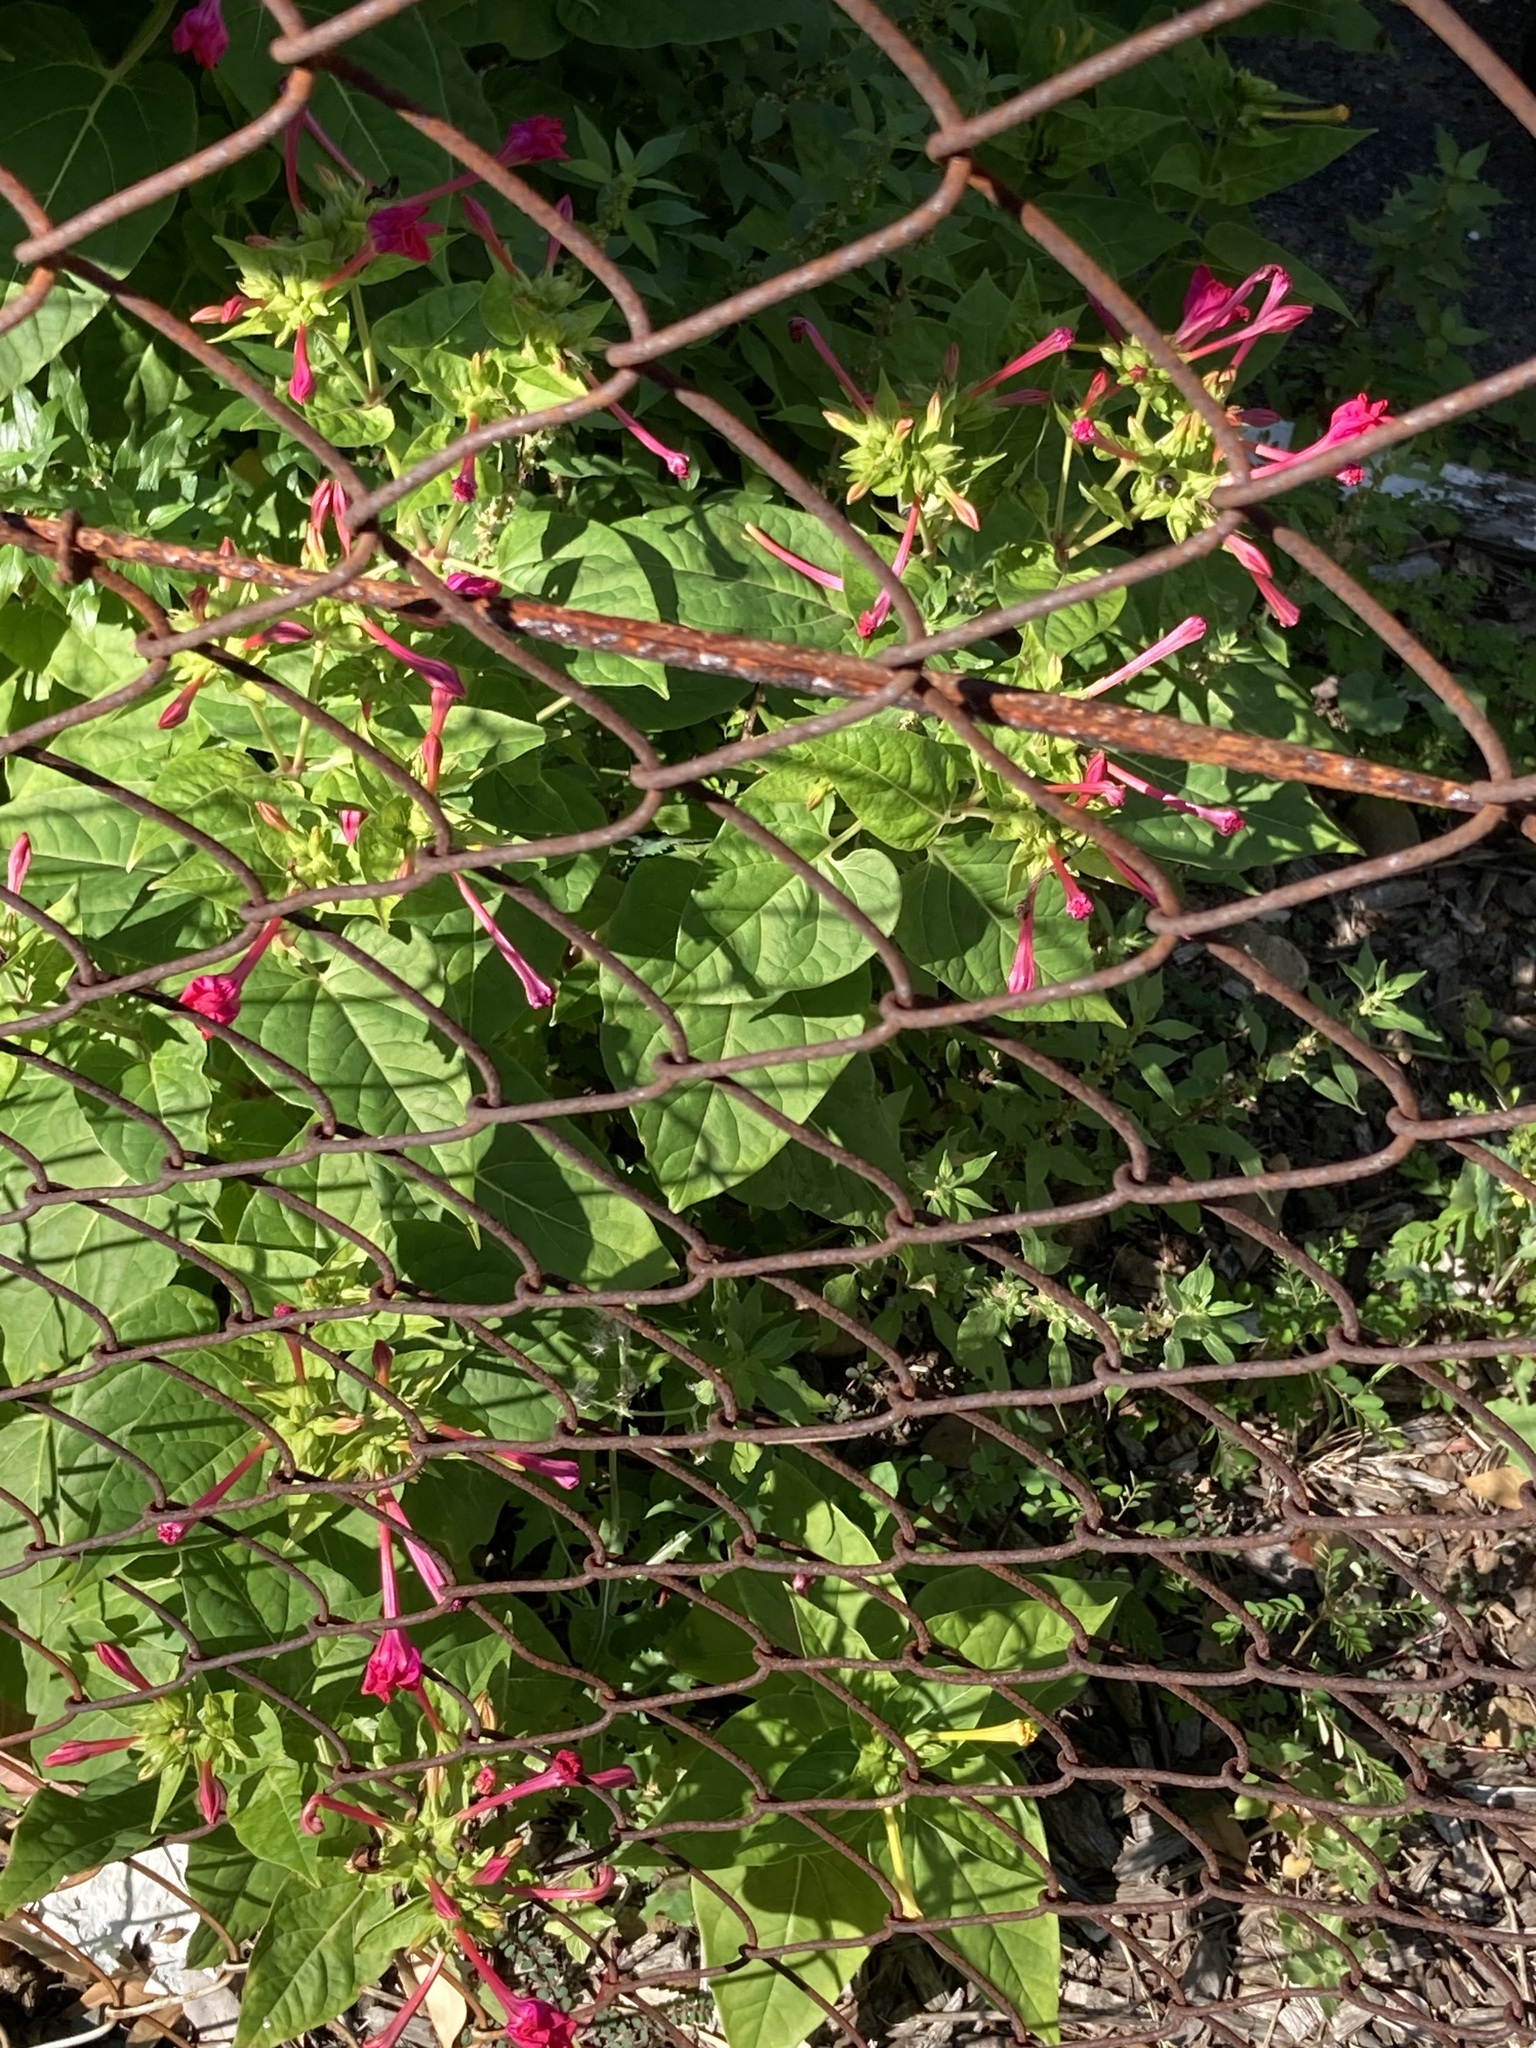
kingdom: Plantae
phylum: Tracheophyta
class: Magnoliopsida
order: Caryophyllales
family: Nyctaginaceae
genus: Mirabilis
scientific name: Mirabilis jalapa
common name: Marvel-of-peru
